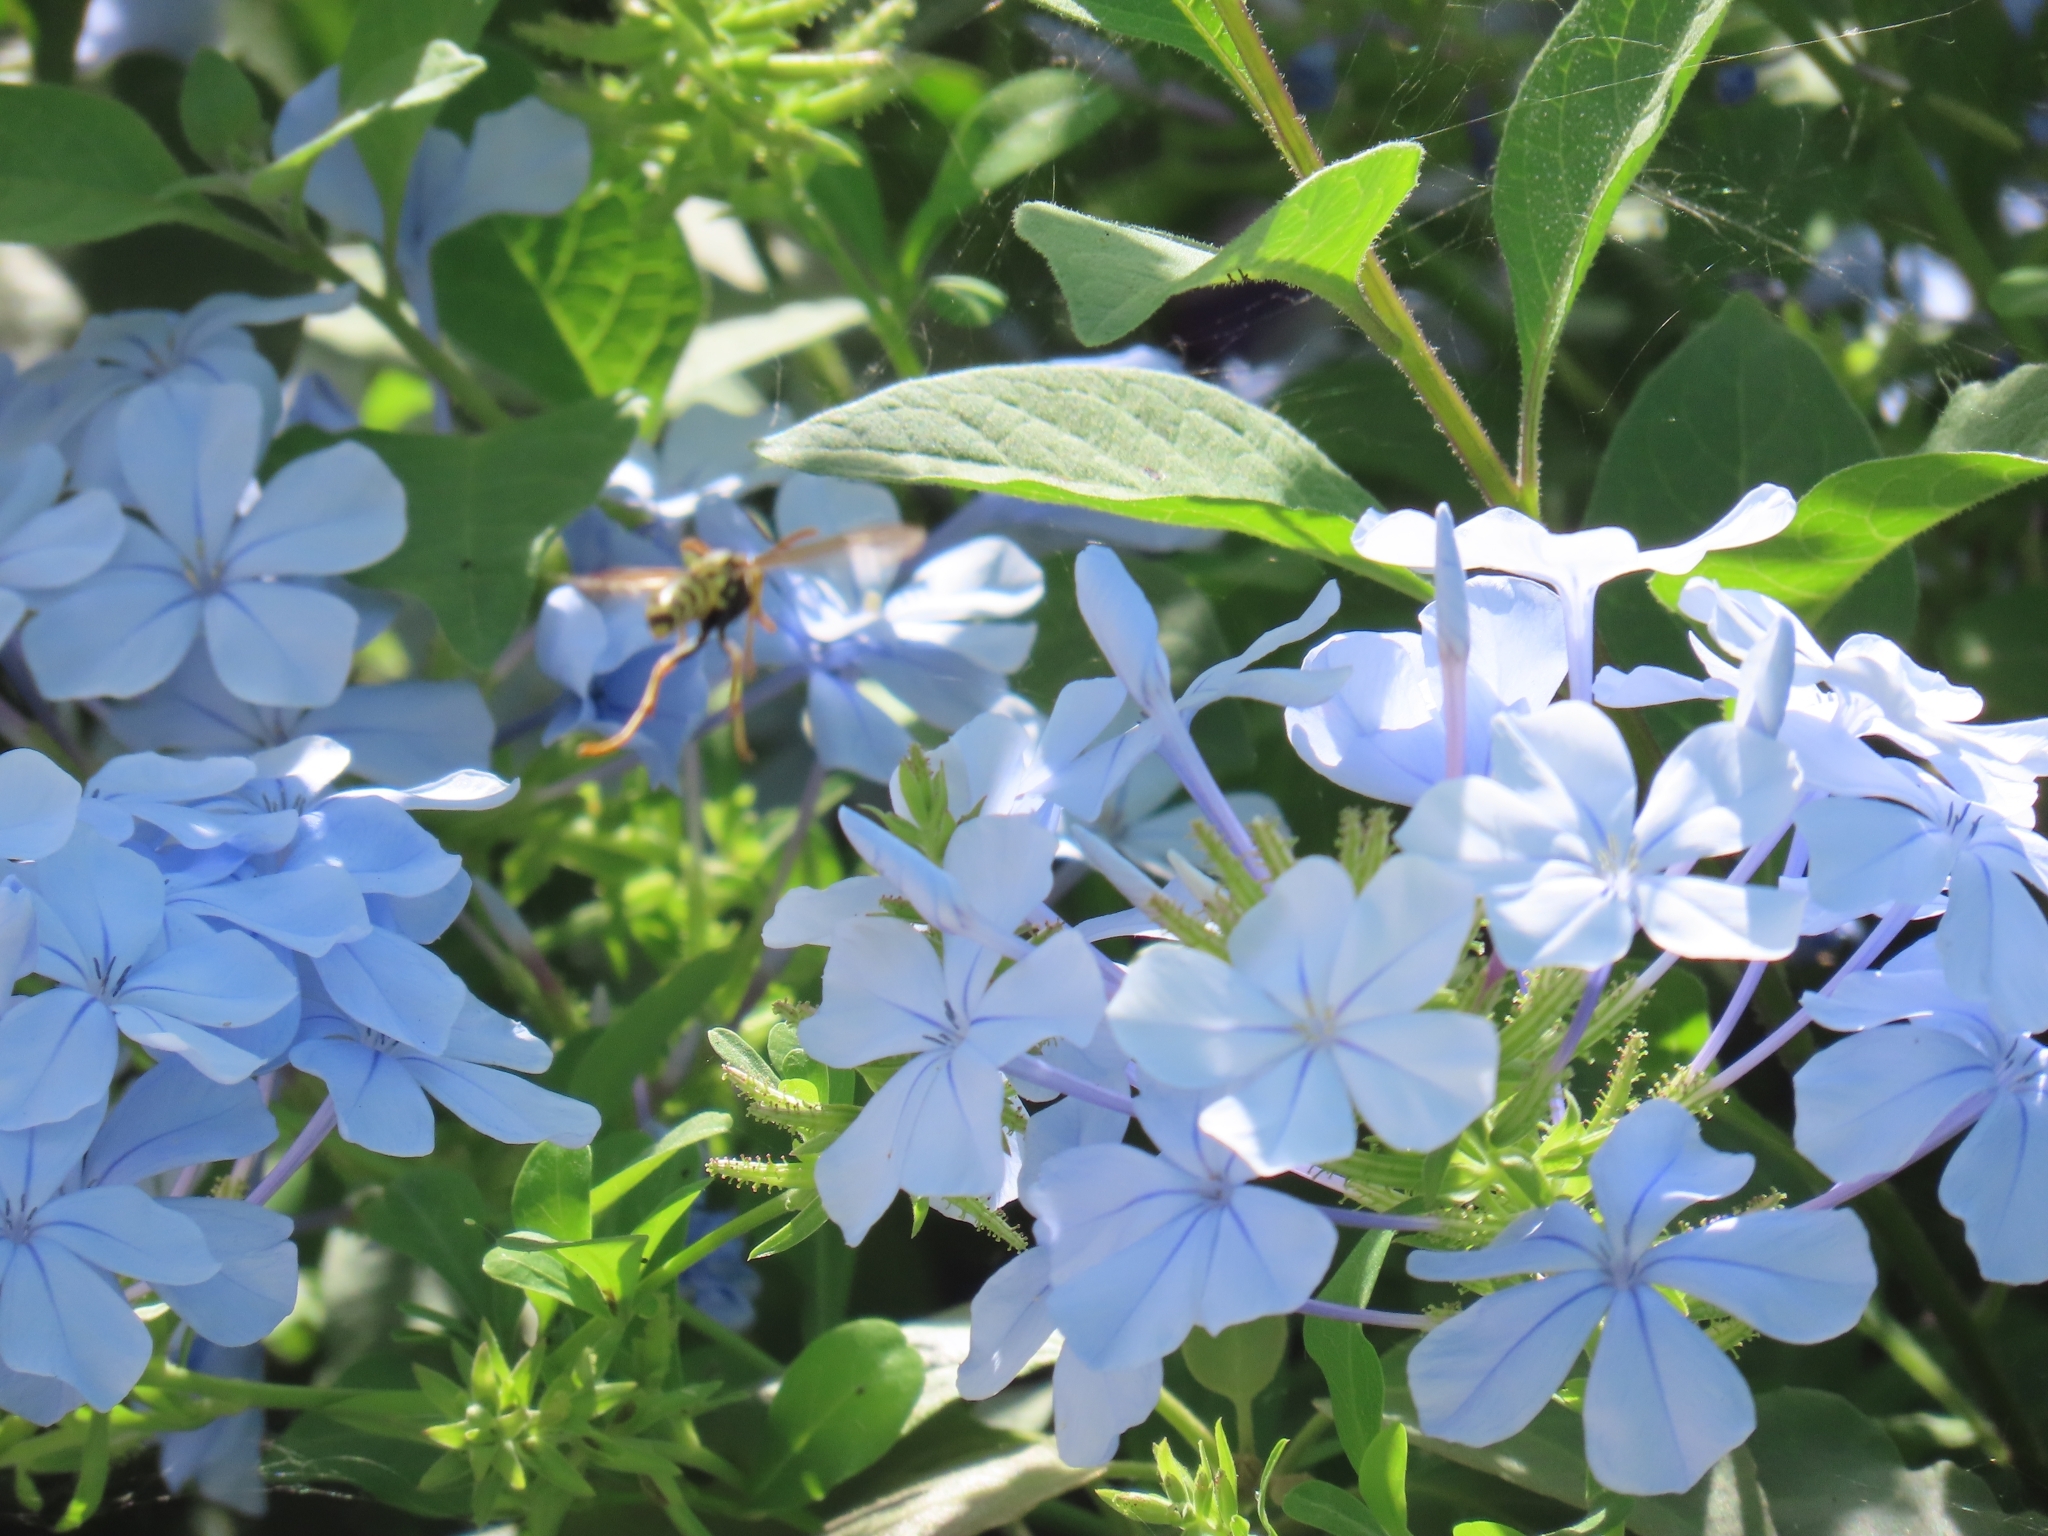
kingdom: Animalia
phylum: Arthropoda
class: Insecta
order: Hymenoptera
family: Eumenidae
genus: Polistes
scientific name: Polistes dominula
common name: Paper wasp
